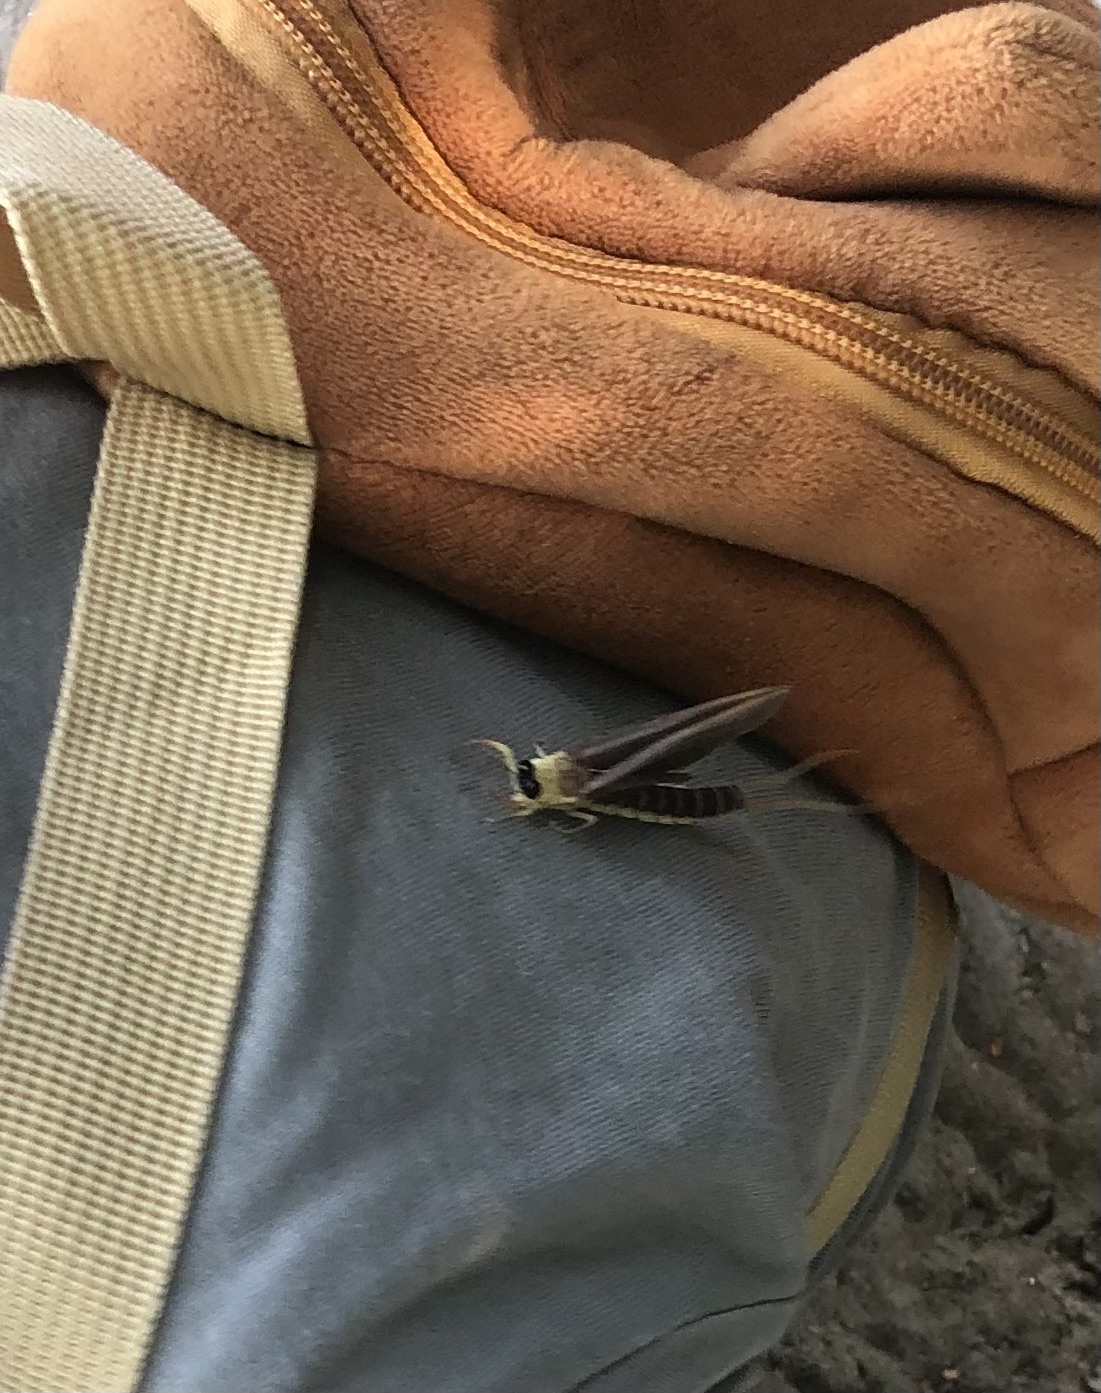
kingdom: Animalia
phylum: Arthropoda
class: Insecta
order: Ephemeroptera
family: Palingeniidae
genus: Palingenia
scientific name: Palingenia longicauda
